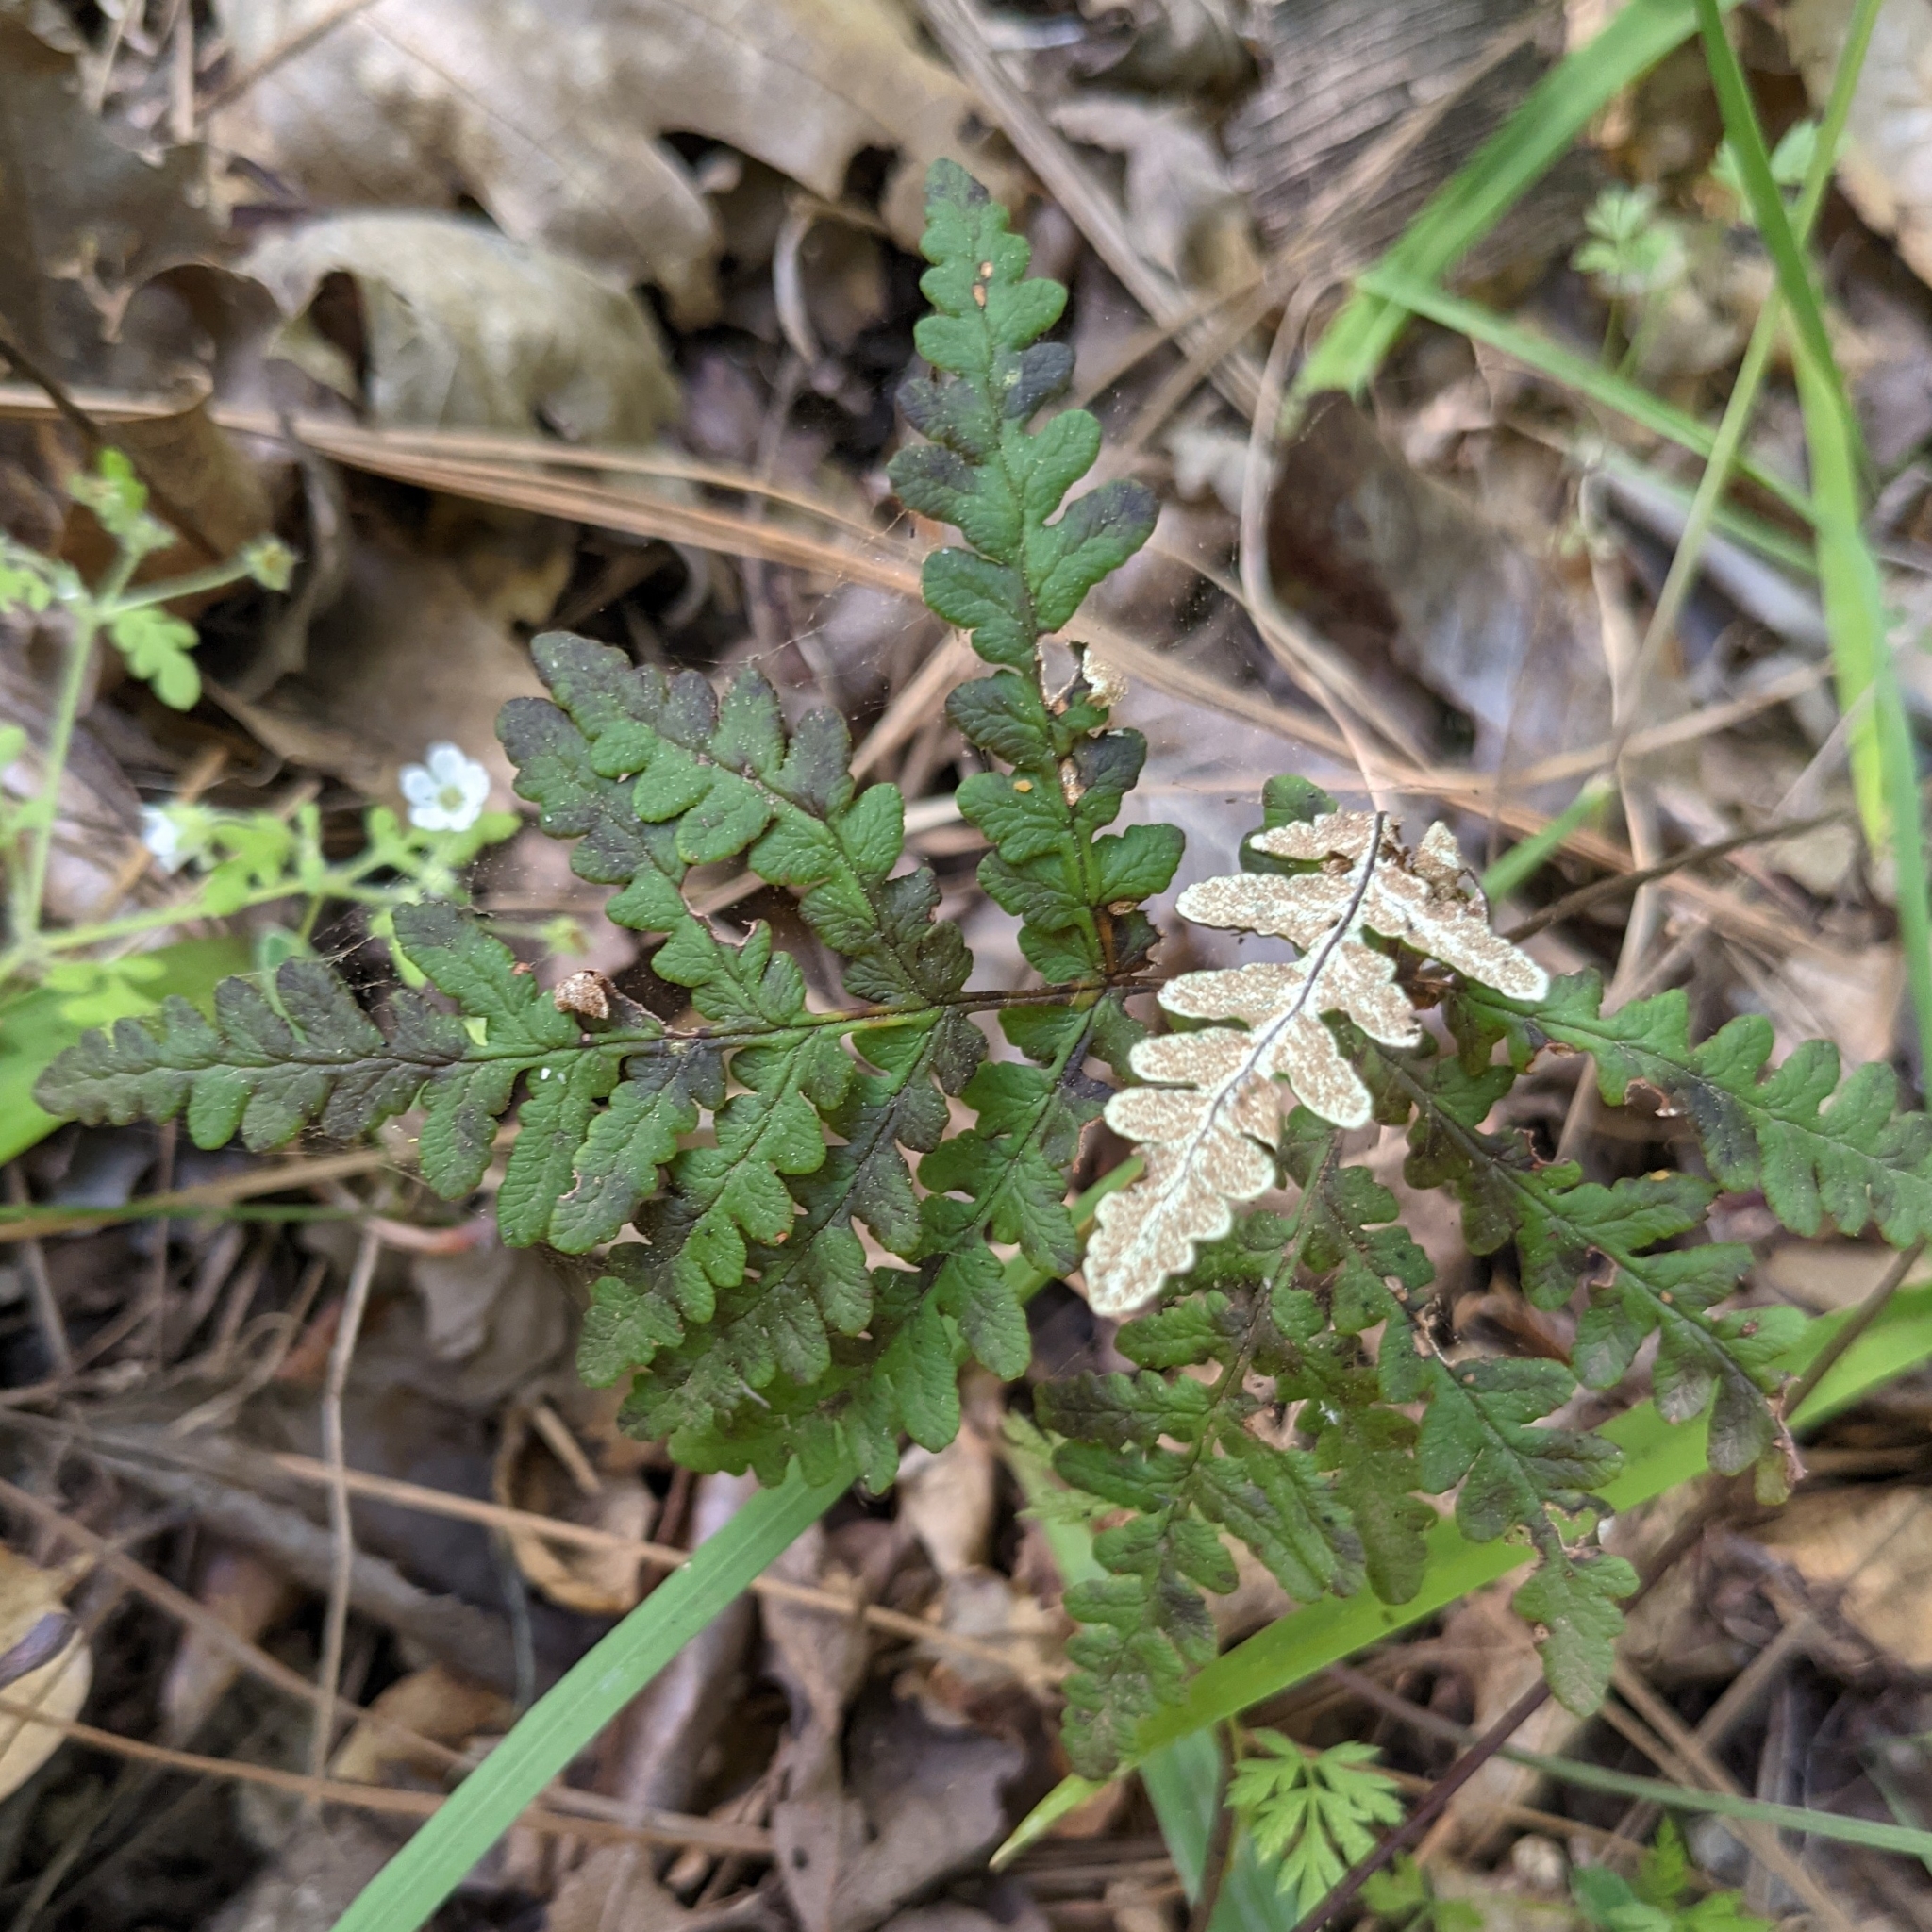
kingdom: Plantae
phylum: Tracheophyta
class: Polypodiopsida
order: Polypodiales
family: Pteridaceae
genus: Pentagramma
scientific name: Pentagramma triangularis
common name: Gold fern
